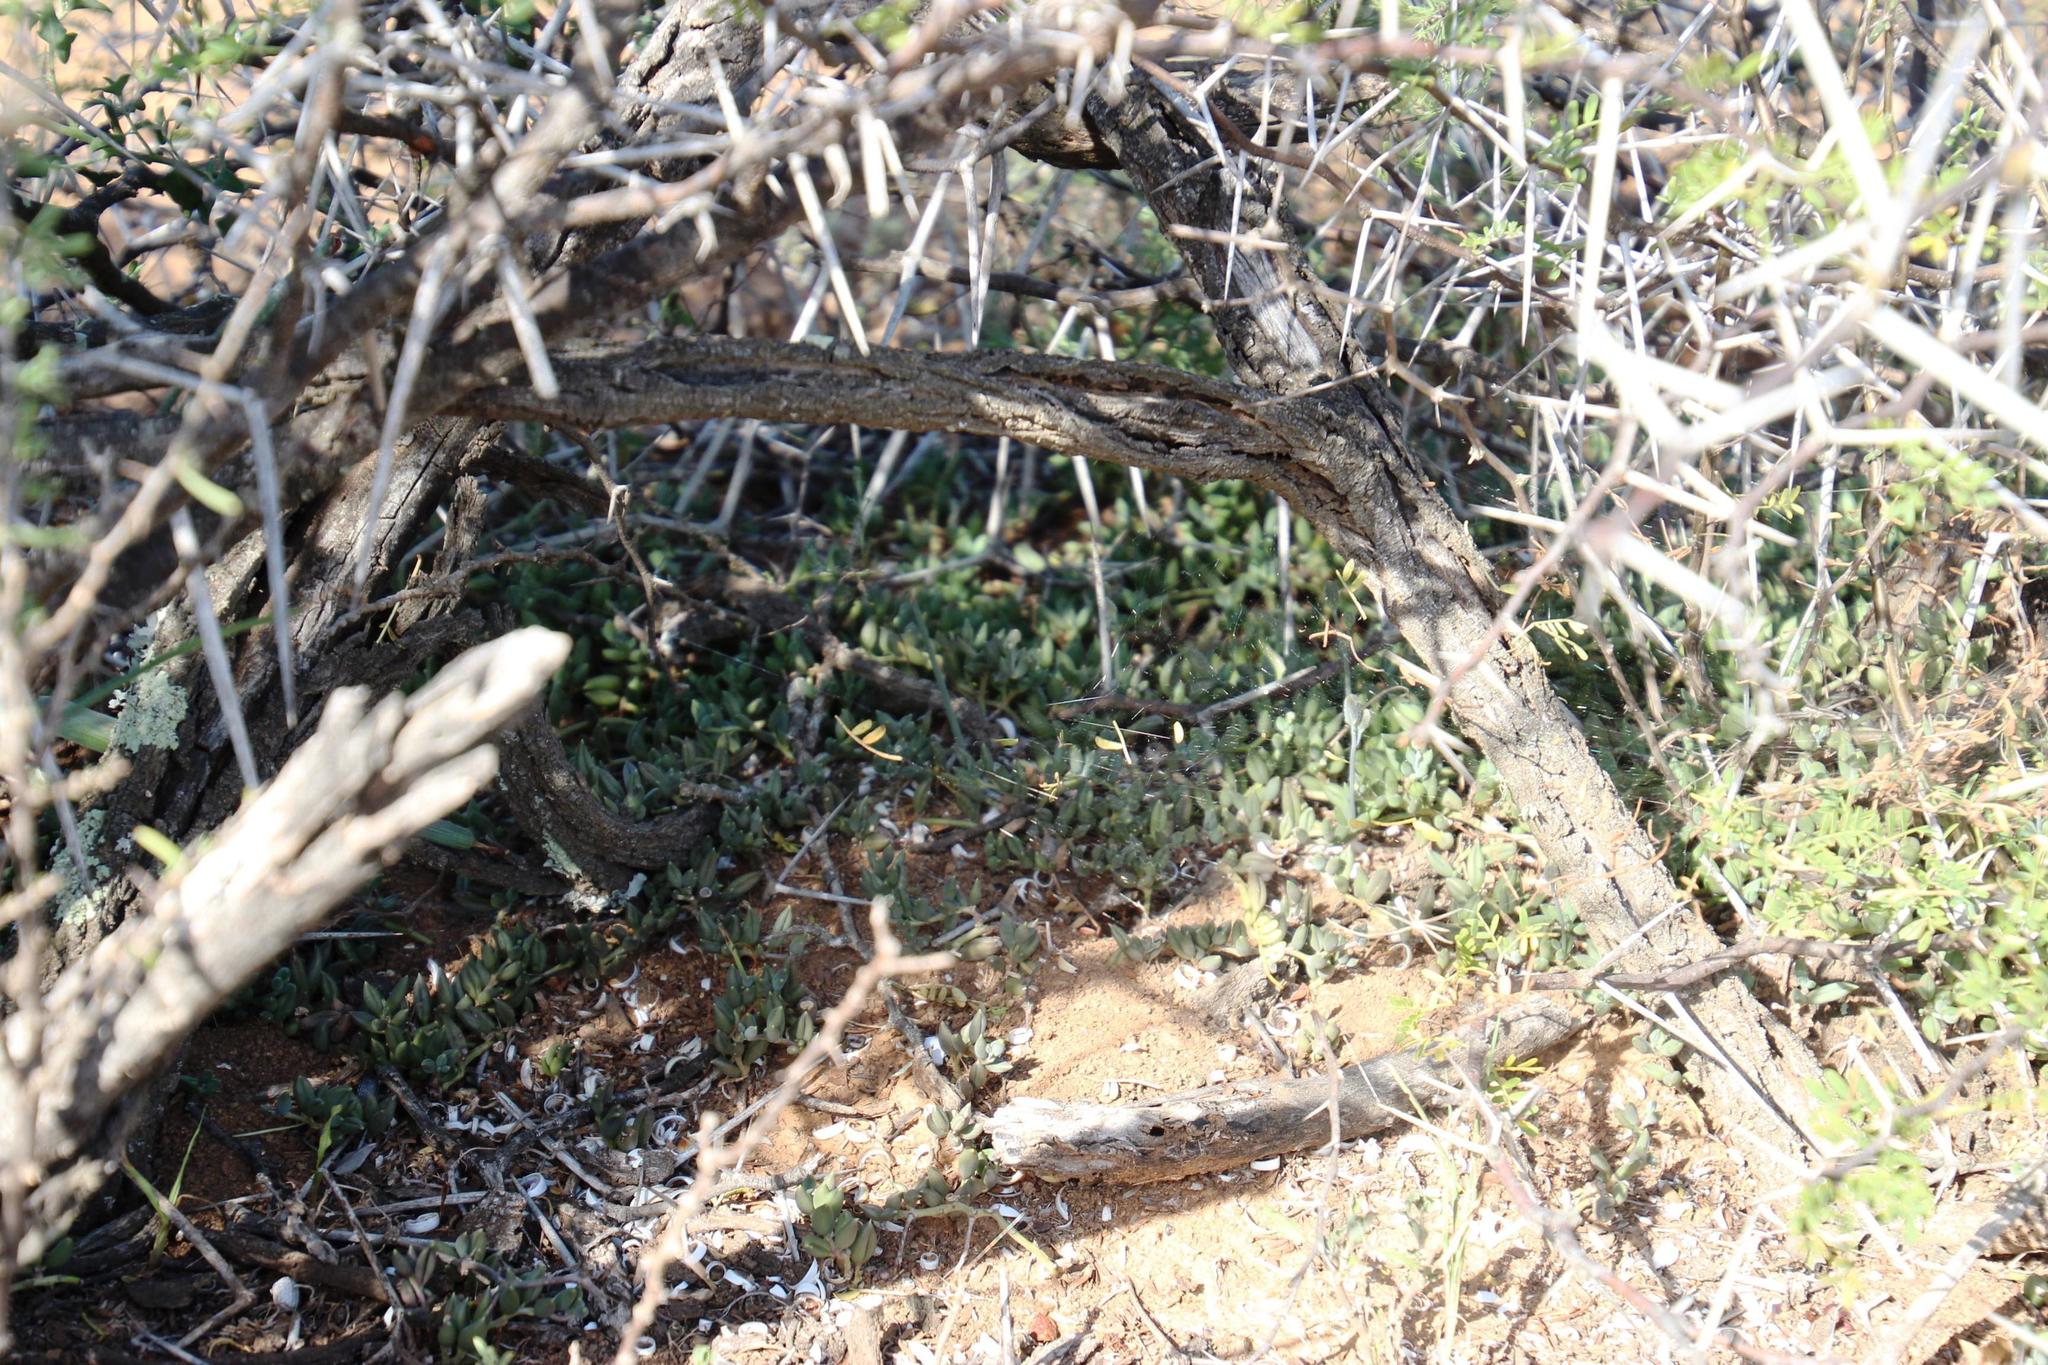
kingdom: Plantae
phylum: Tracheophyta
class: Magnoliopsida
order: Asterales
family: Asteraceae
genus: Curio
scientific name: Curio radicans
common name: Creeping-berry
